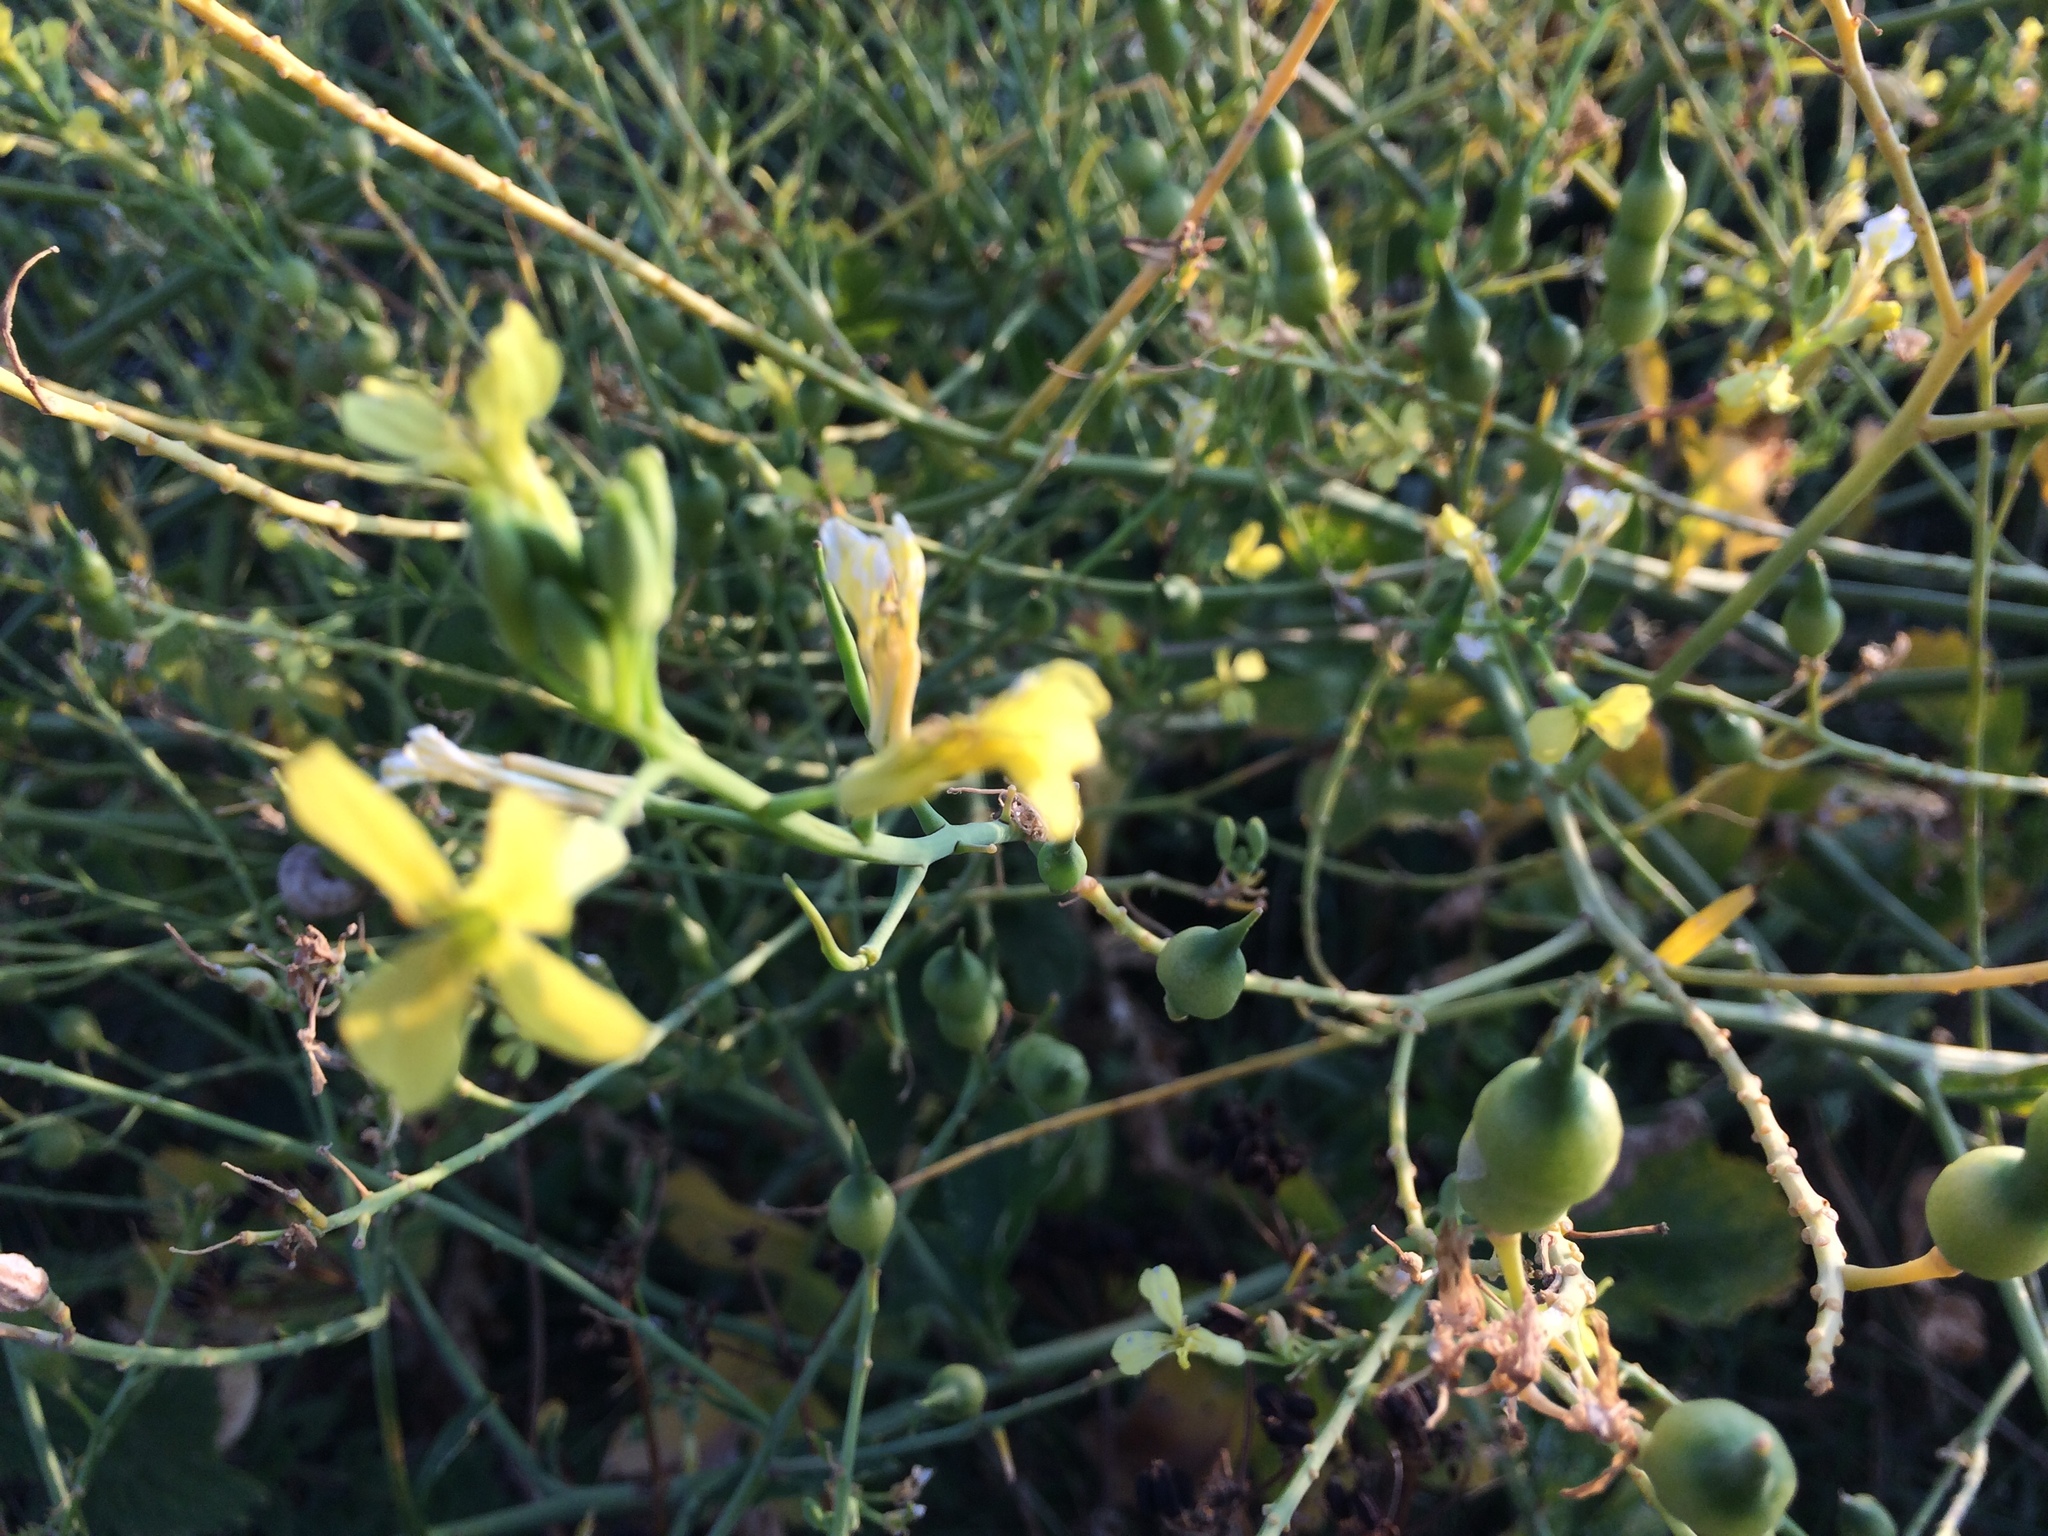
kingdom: Plantae
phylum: Tracheophyta
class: Magnoliopsida
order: Brassicales
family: Brassicaceae
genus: Raphanus
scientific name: Raphanus raphanistrum
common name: Wild radish
